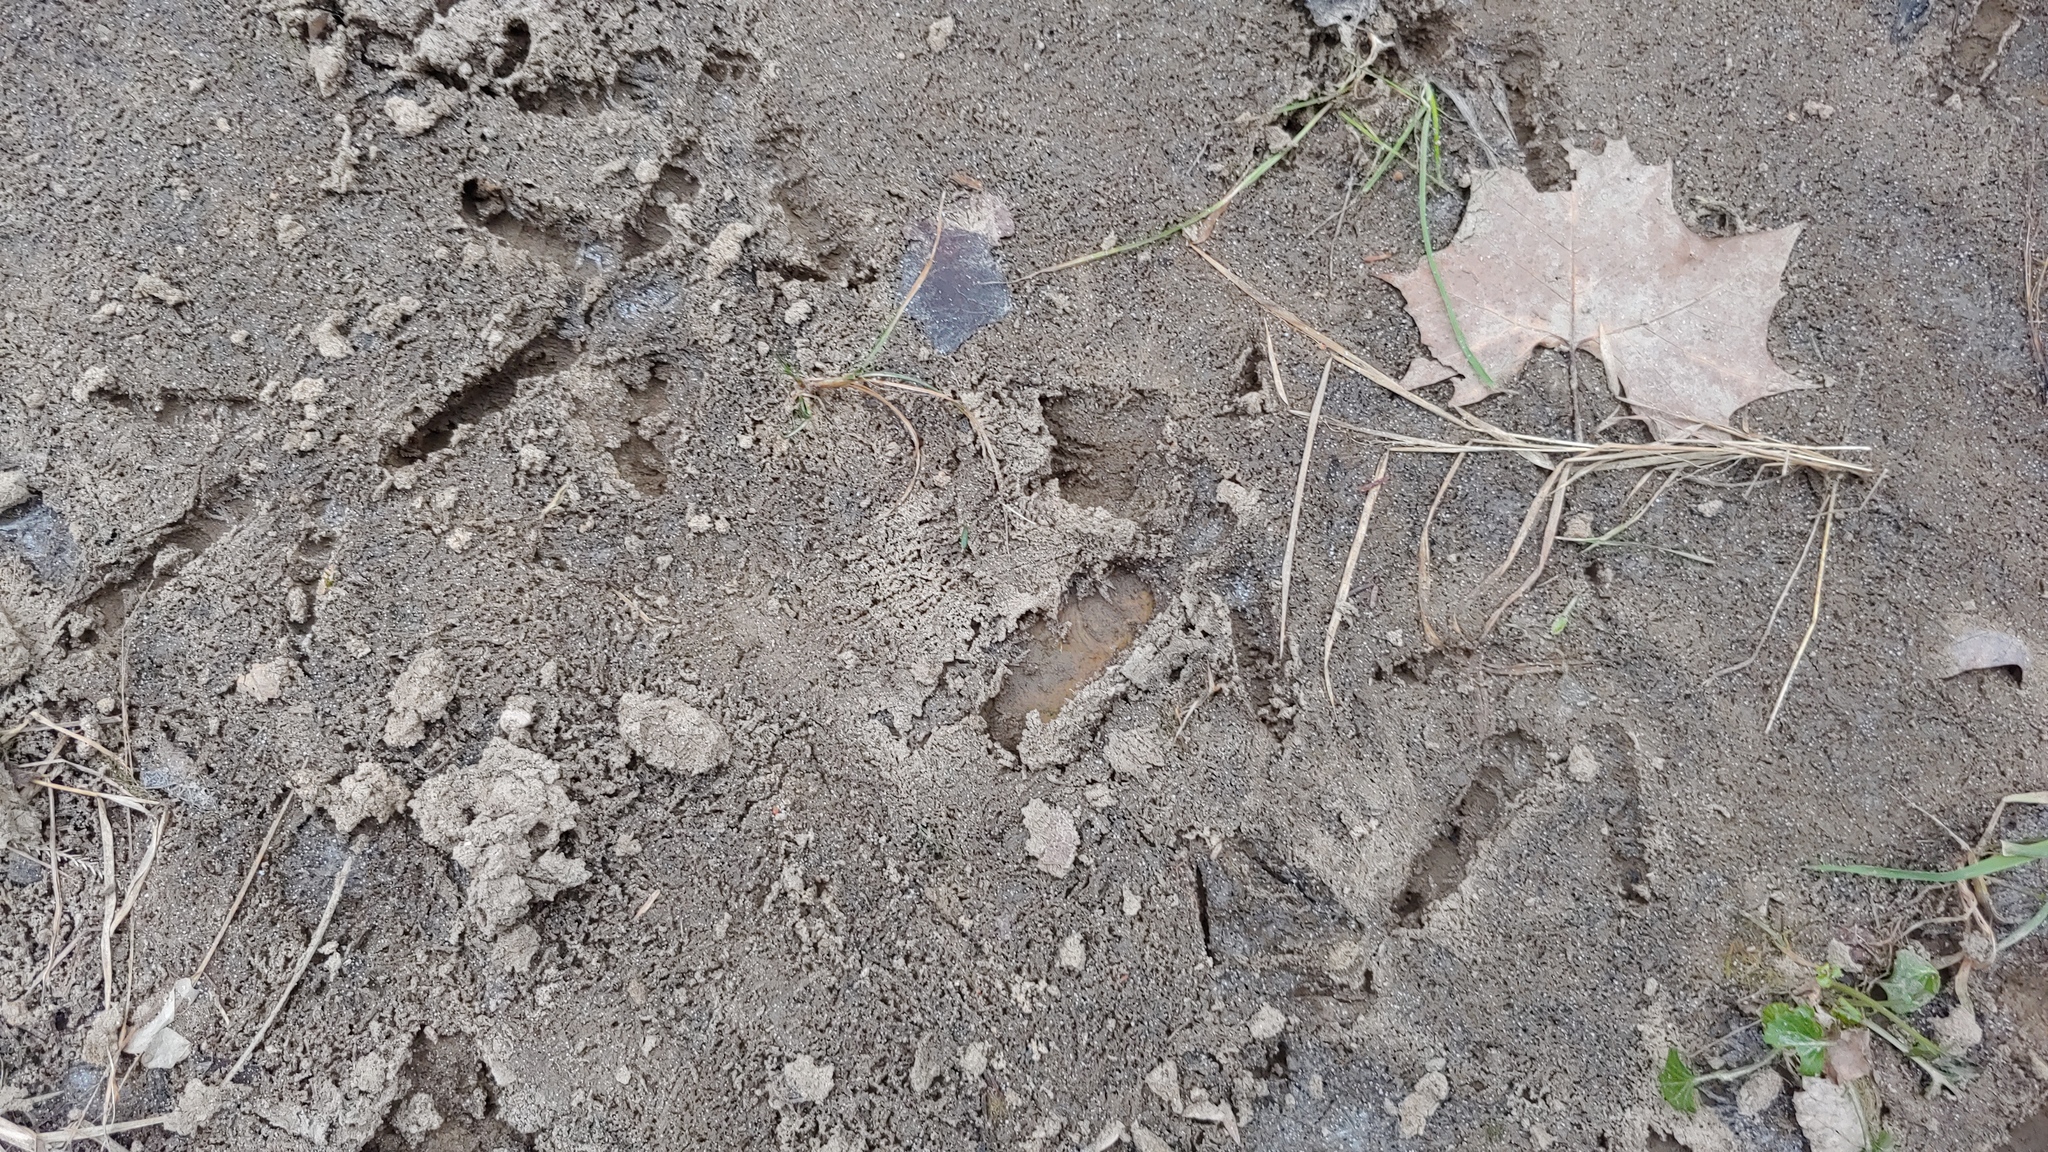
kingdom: Animalia
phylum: Chordata
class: Aves
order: Galliformes
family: Phasianidae
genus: Meleagris
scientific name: Meleagris gallopavo
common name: Wild turkey
